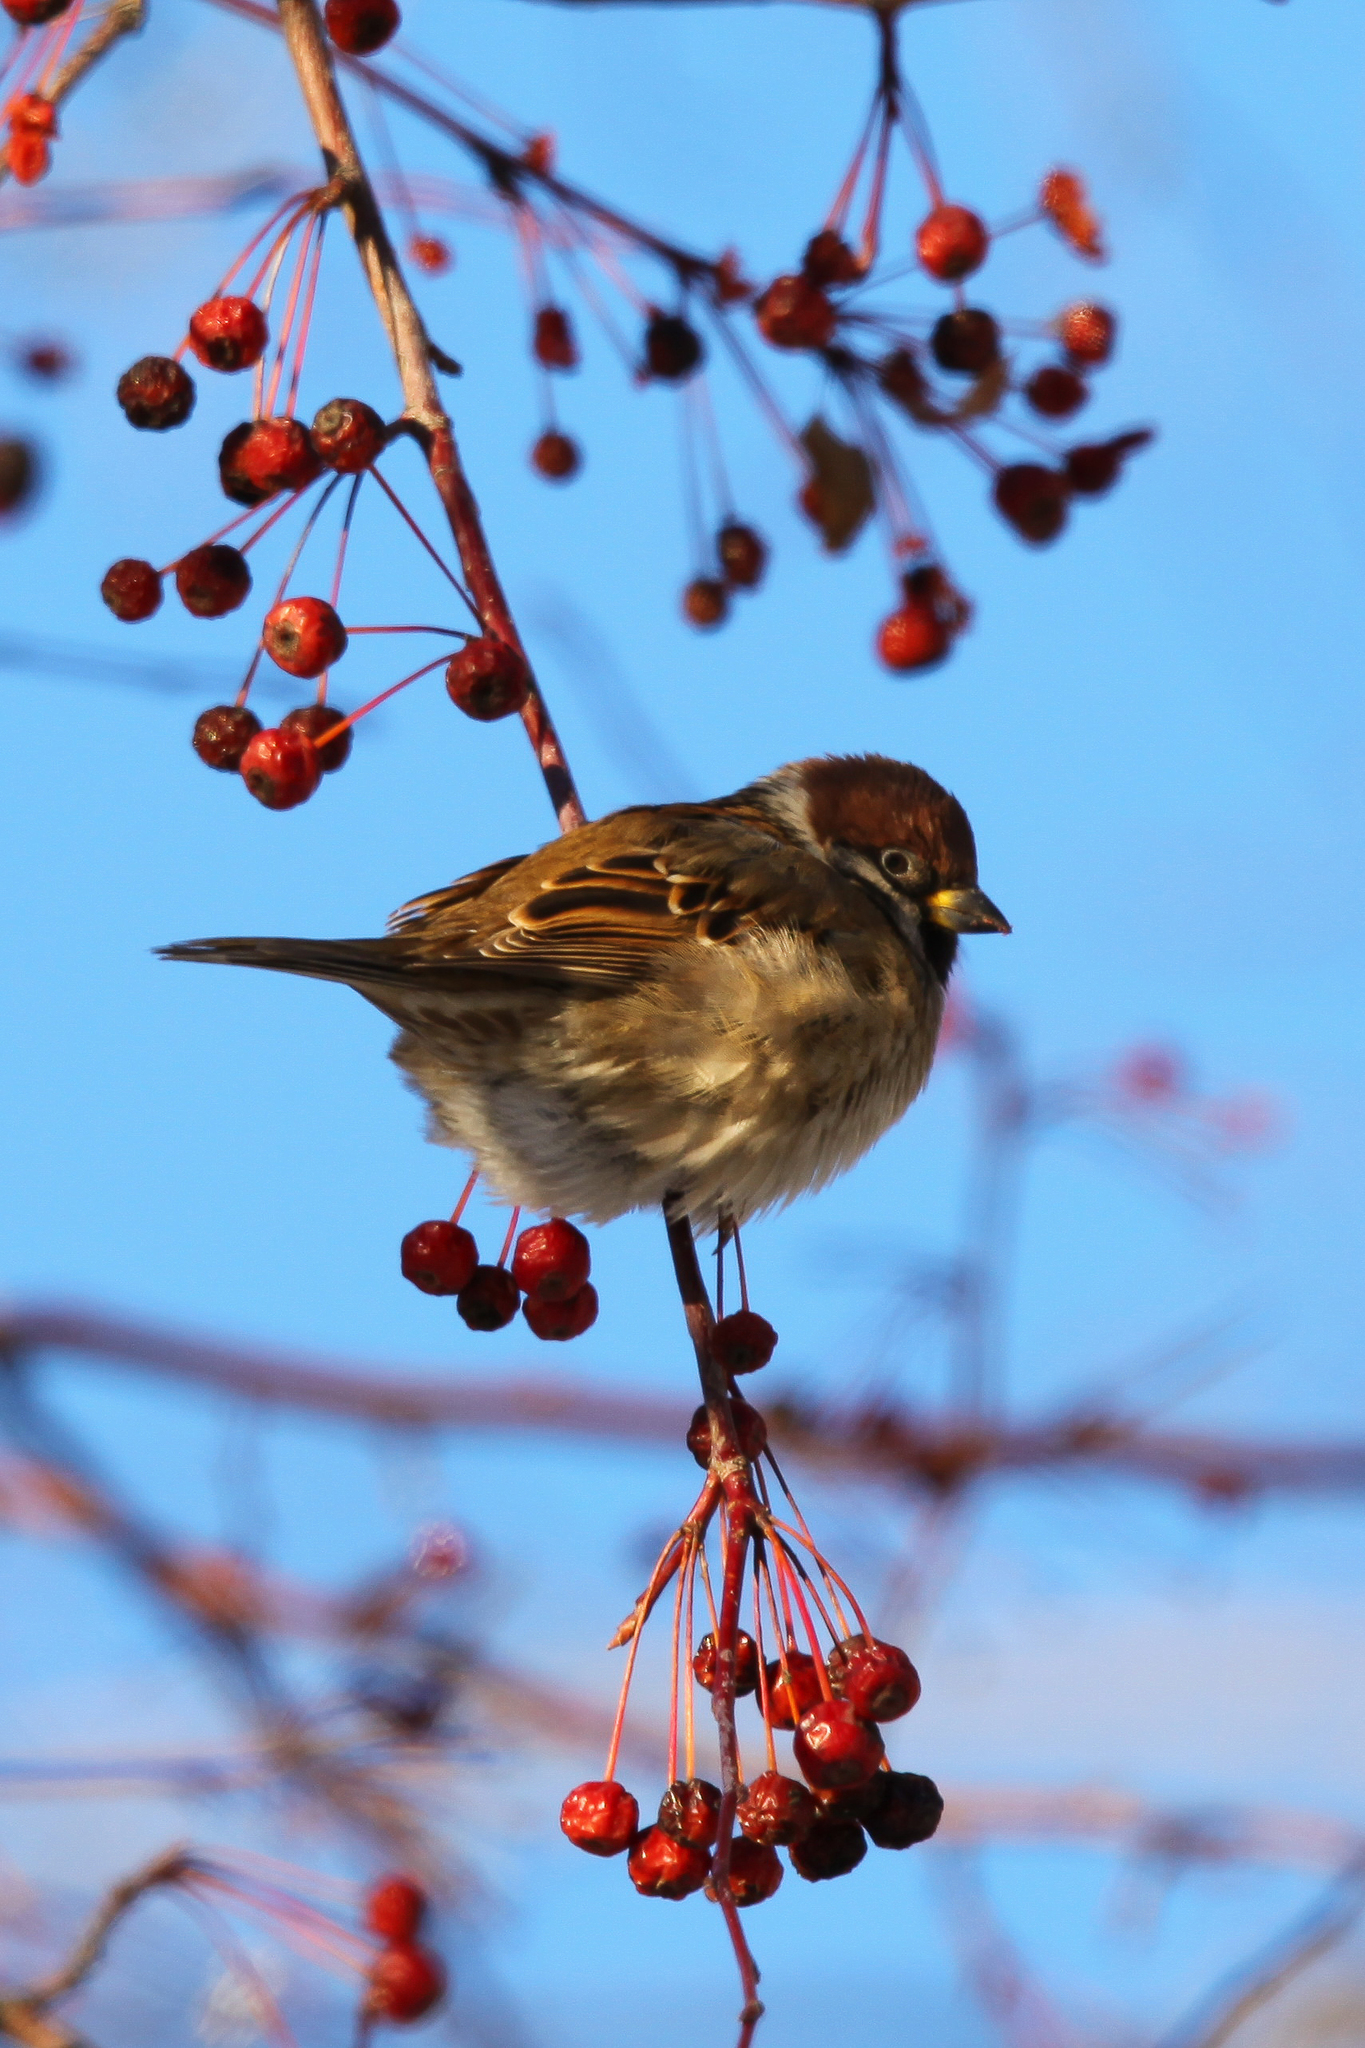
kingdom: Animalia
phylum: Chordata
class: Aves
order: Passeriformes
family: Passeridae
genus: Passer
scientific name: Passer montanus
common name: Eurasian tree sparrow
